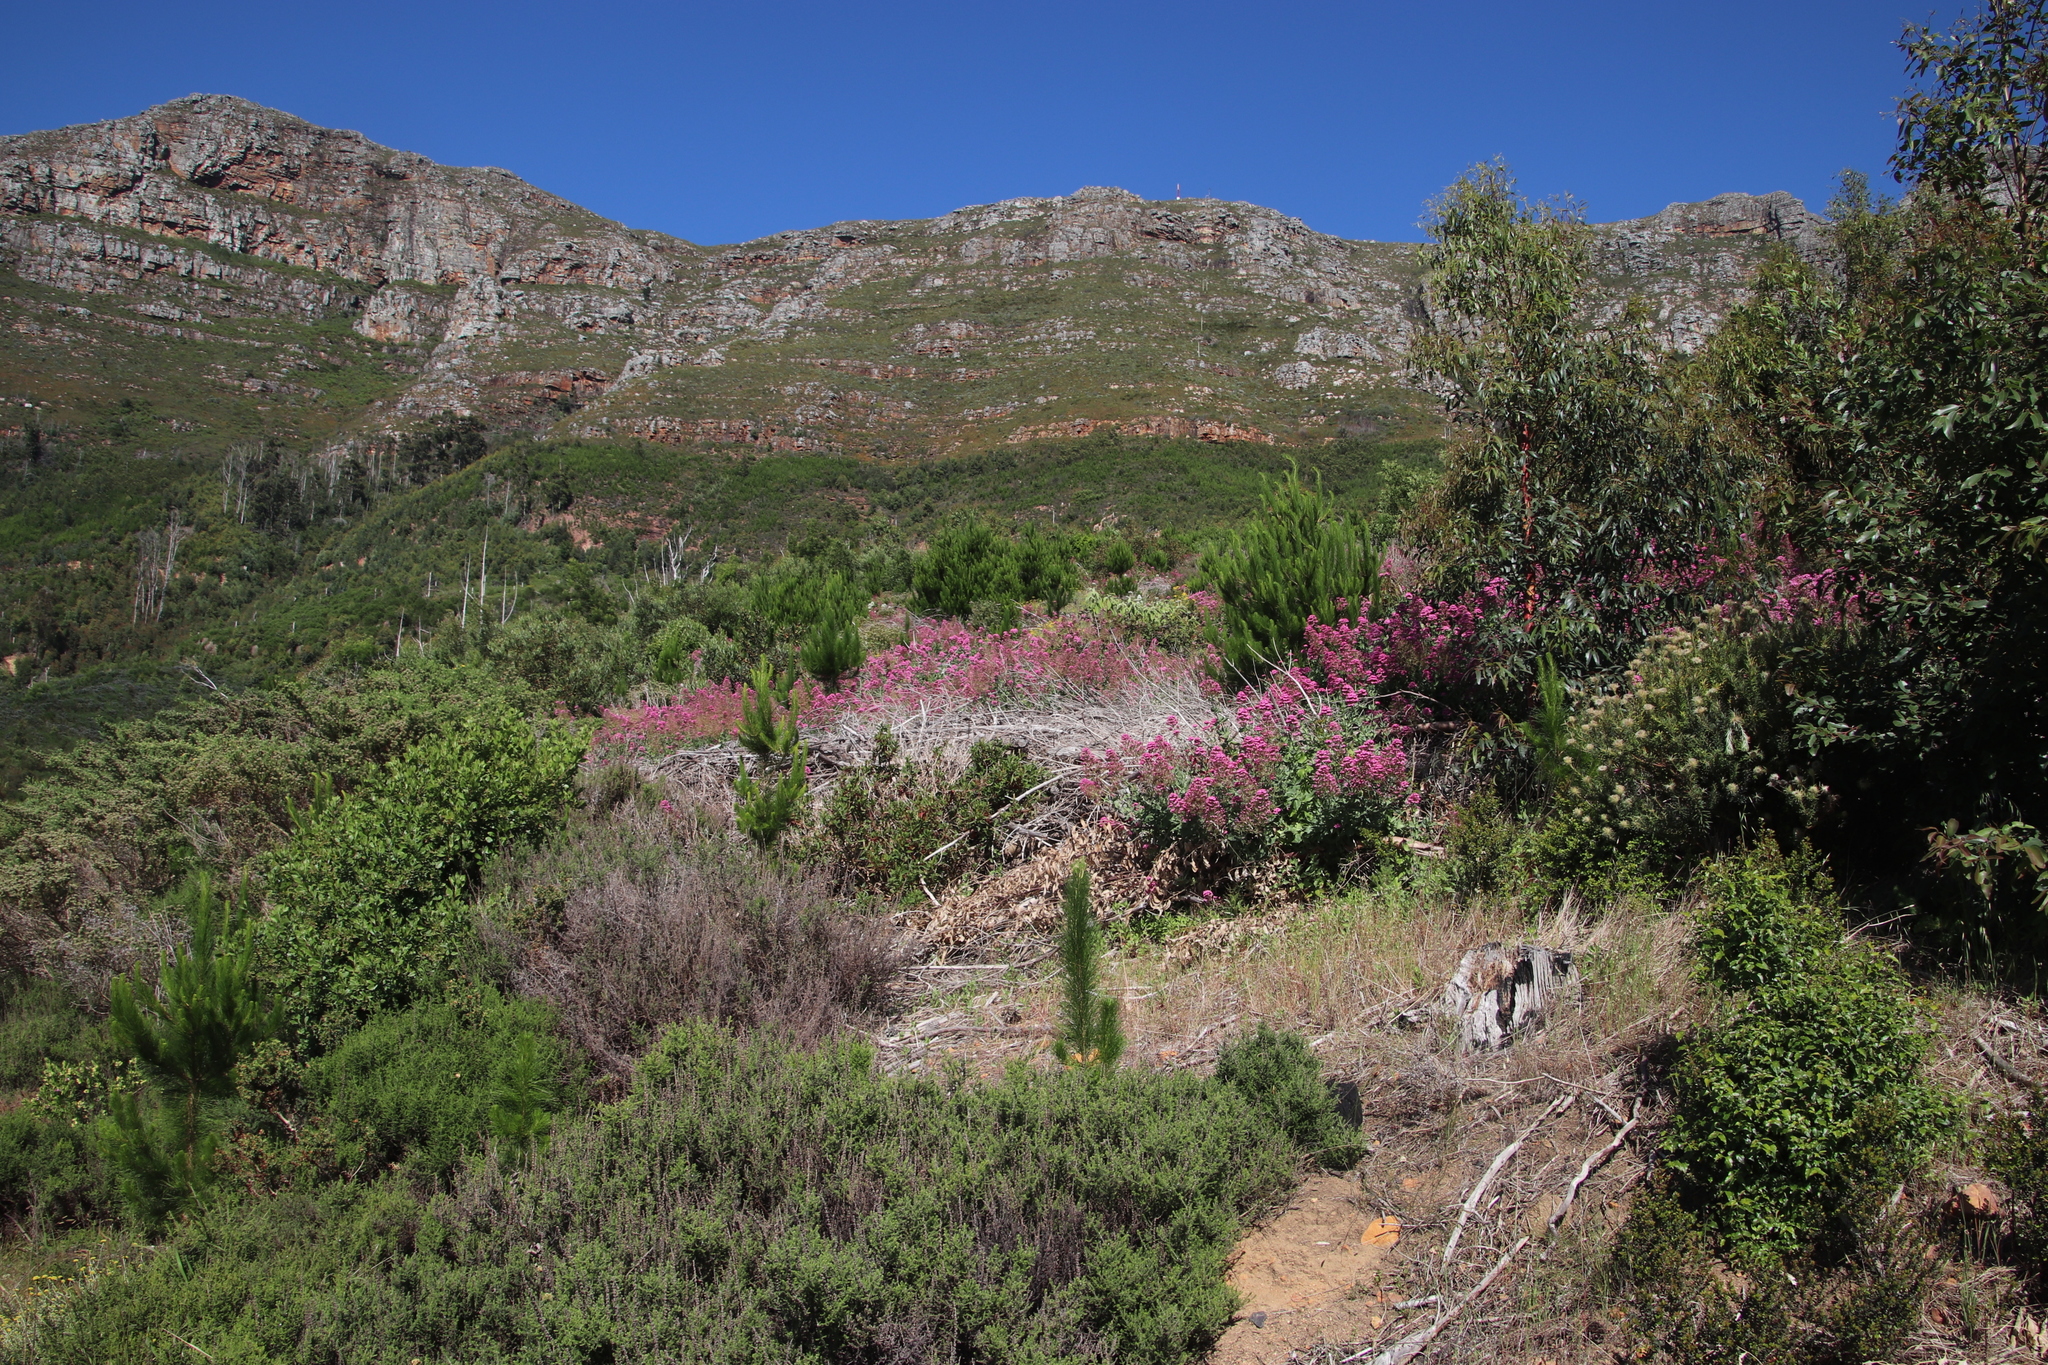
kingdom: Plantae
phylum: Tracheophyta
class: Magnoliopsida
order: Dipsacales
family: Caprifoliaceae
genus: Centranthus
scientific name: Centranthus ruber
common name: Red valerian
